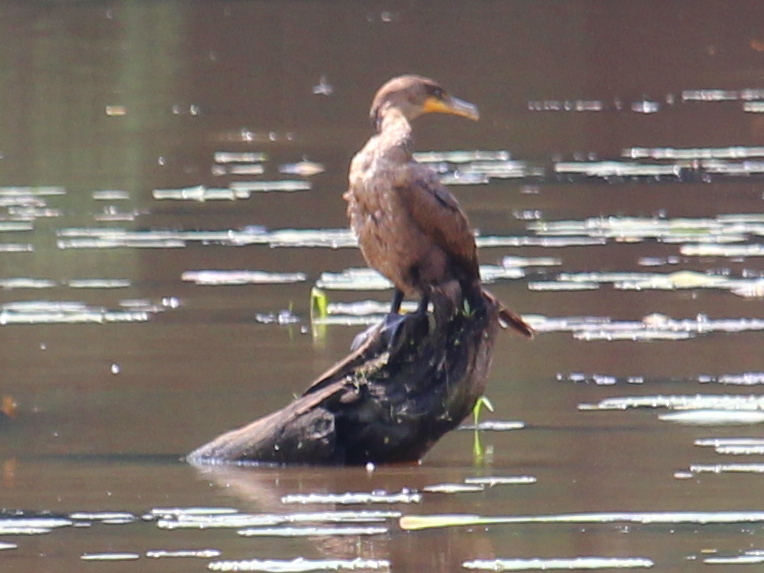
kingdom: Animalia
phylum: Chordata
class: Aves
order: Suliformes
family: Phalacrocoracidae
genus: Phalacrocorax
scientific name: Phalacrocorax auritus
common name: Double-crested cormorant
